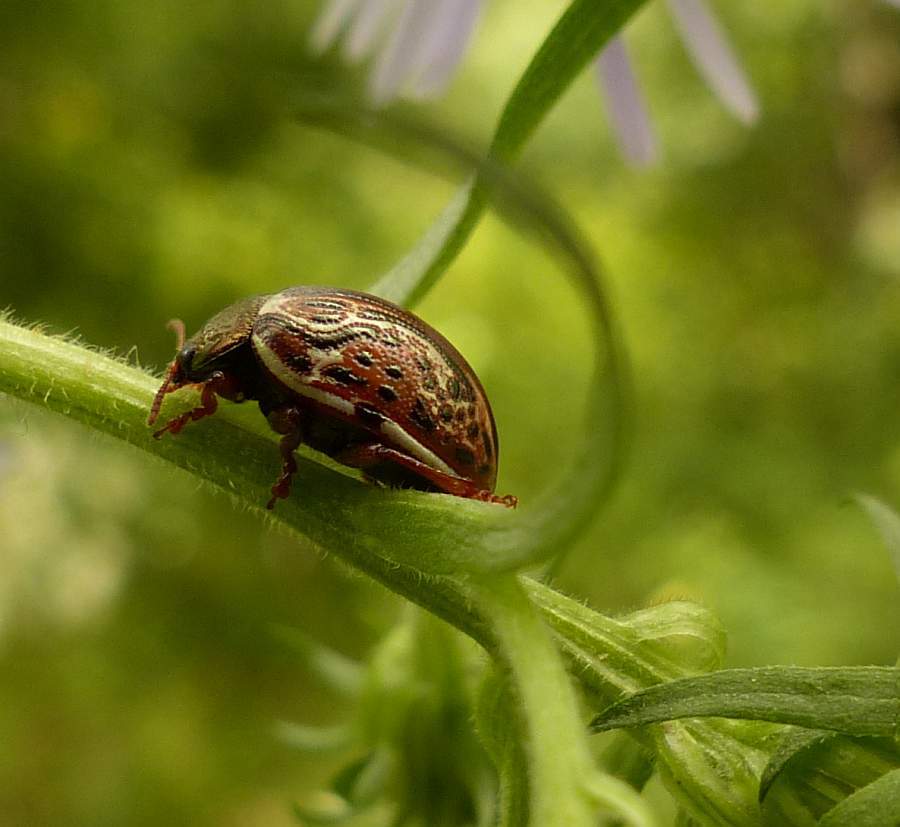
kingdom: Animalia
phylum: Arthropoda
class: Insecta
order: Coleoptera
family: Chrysomelidae
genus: Calligrapha
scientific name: Calligrapha alni
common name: Russet alder leaf beetle
